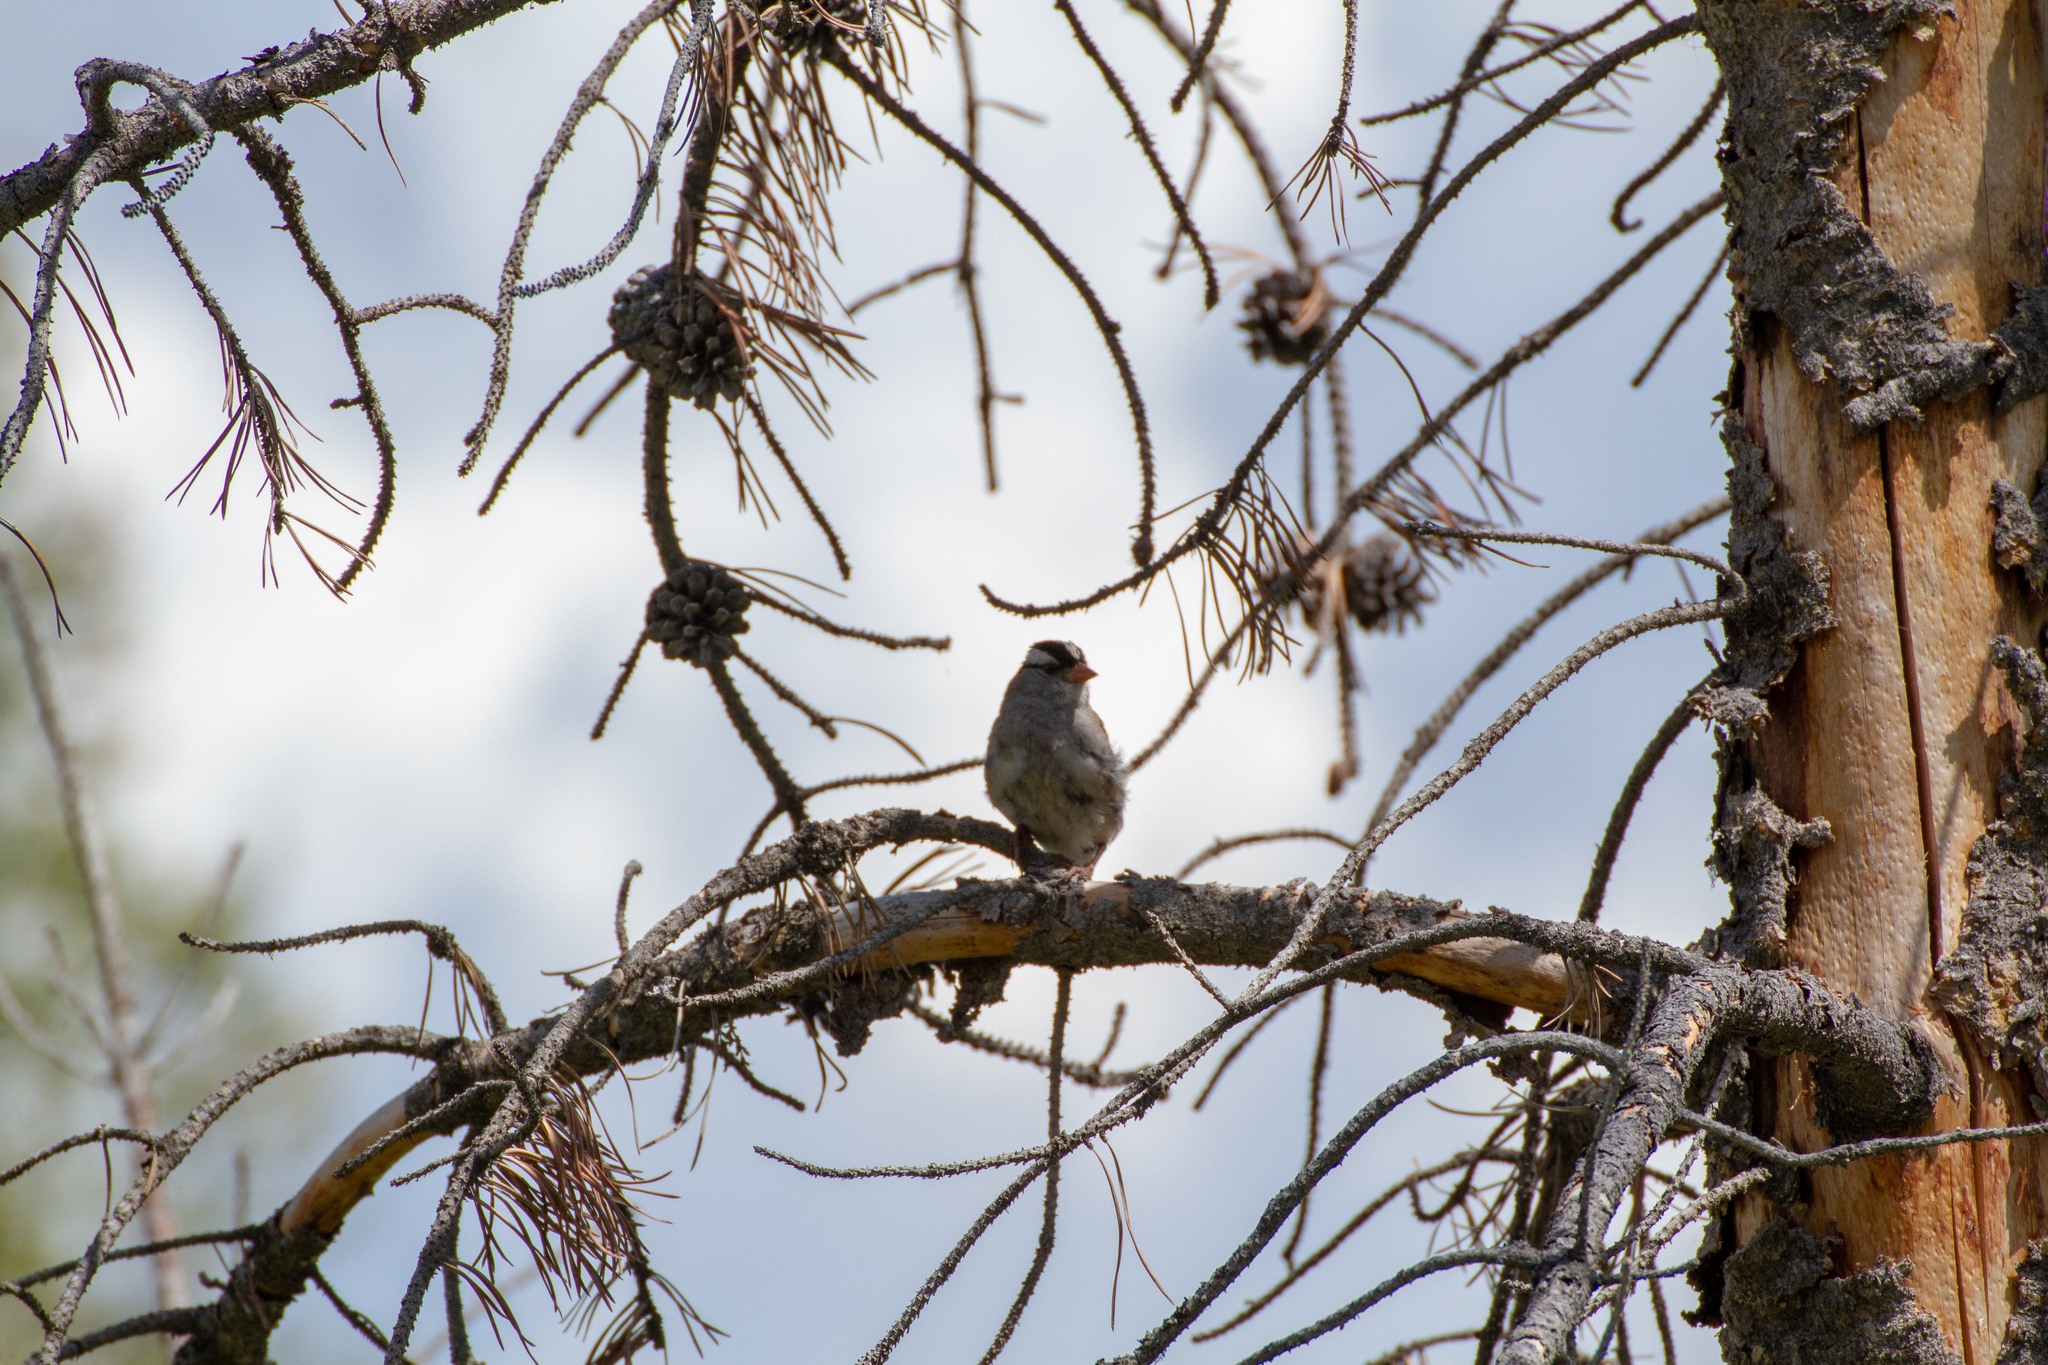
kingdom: Animalia
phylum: Chordata
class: Aves
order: Passeriformes
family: Passerellidae
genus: Zonotrichia
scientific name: Zonotrichia leucophrys
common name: White-crowned sparrow
